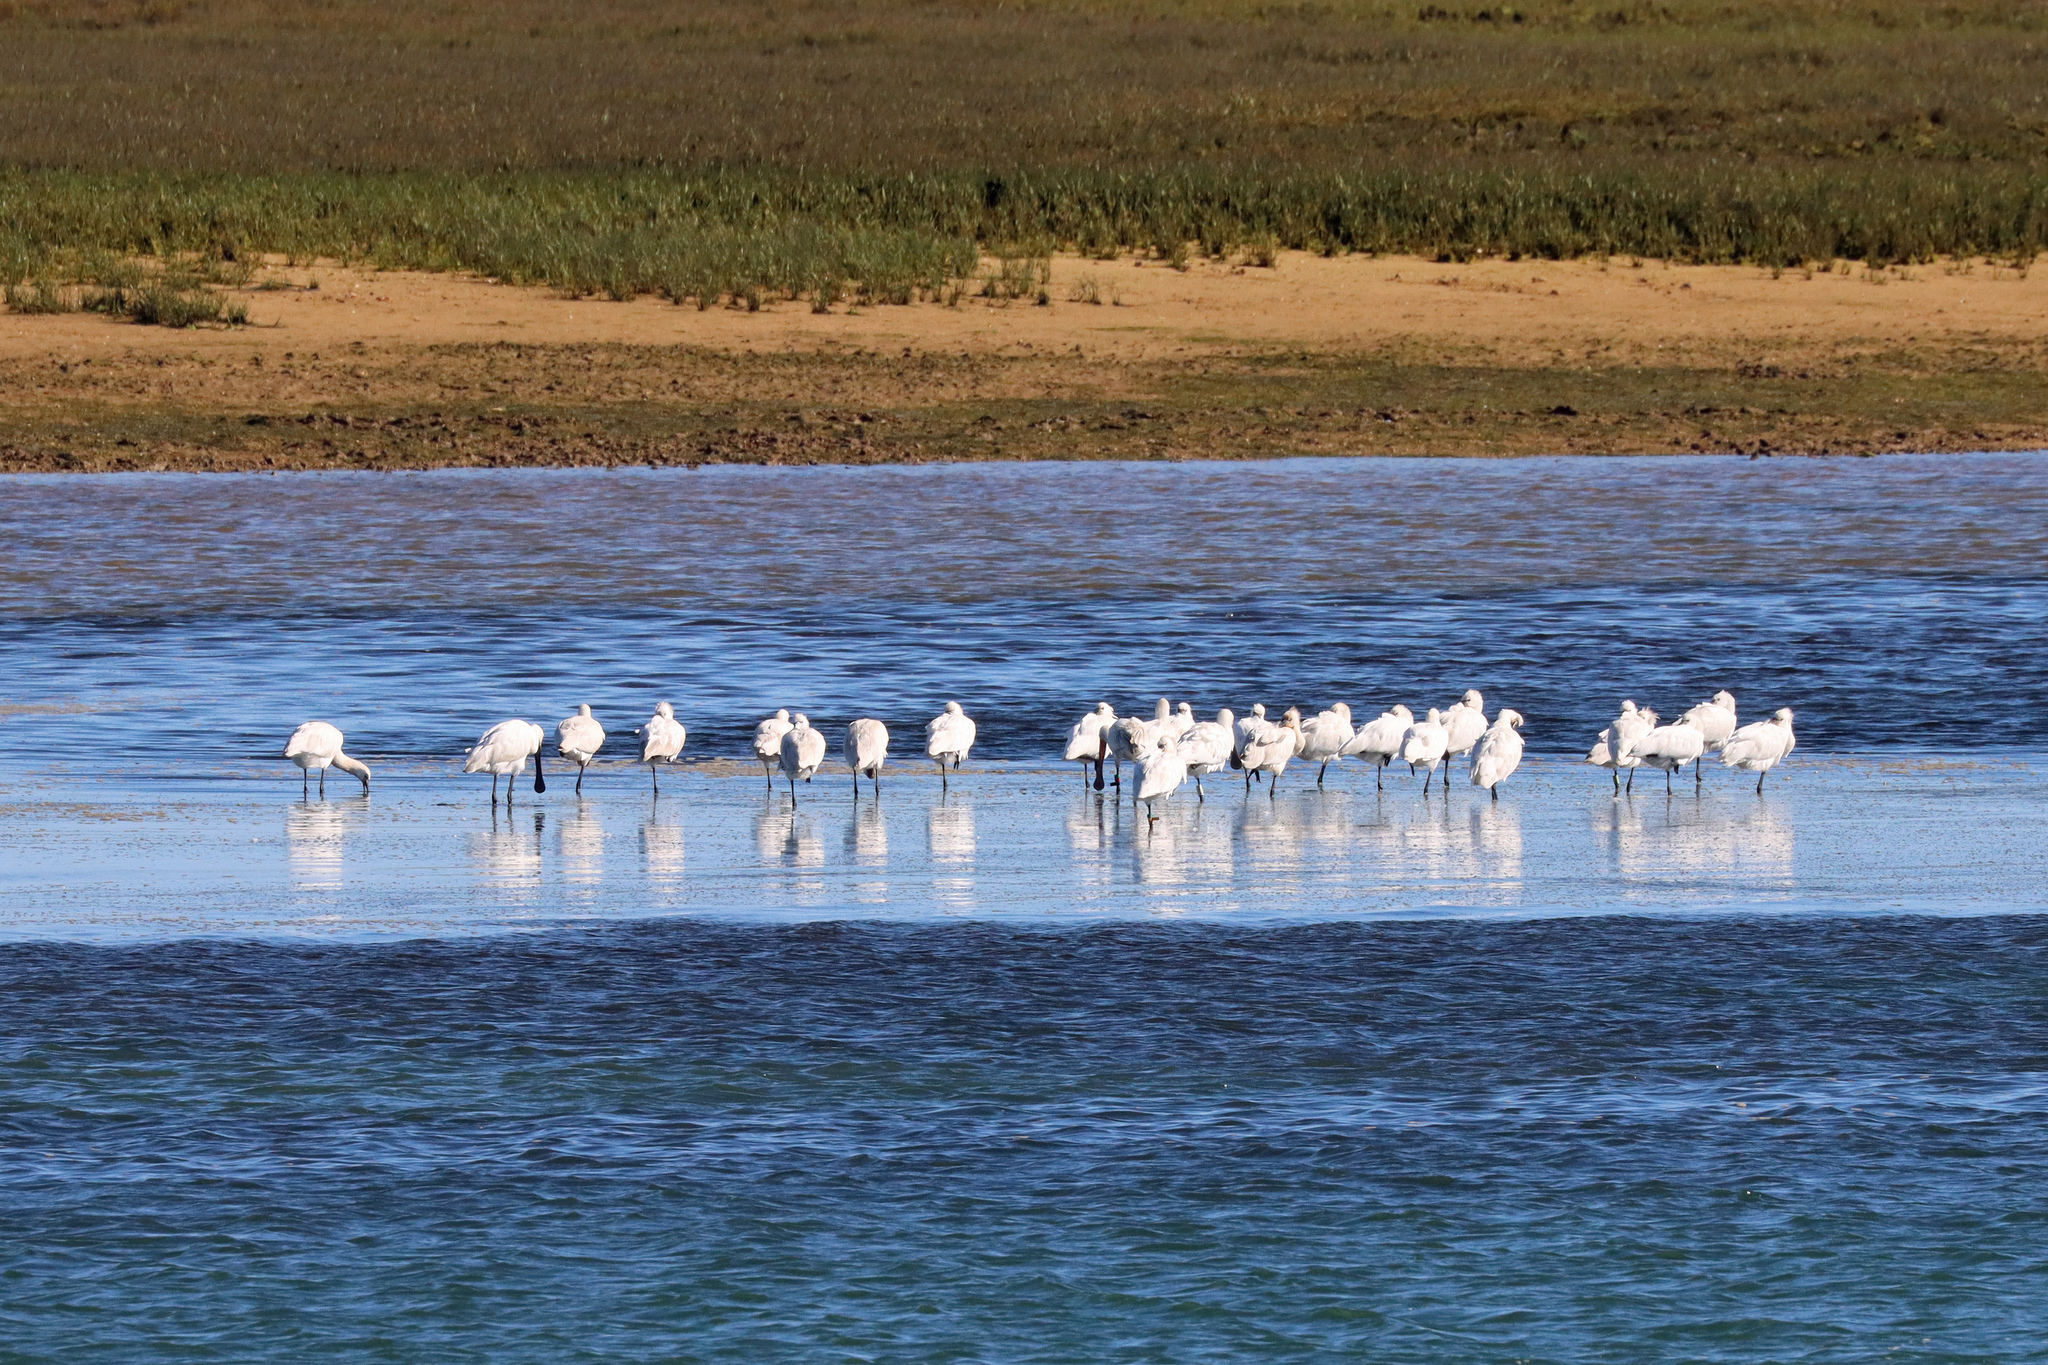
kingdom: Animalia
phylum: Chordata
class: Aves
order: Pelecaniformes
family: Threskiornithidae
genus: Platalea
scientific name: Platalea leucorodia
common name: Eurasian spoonbill
